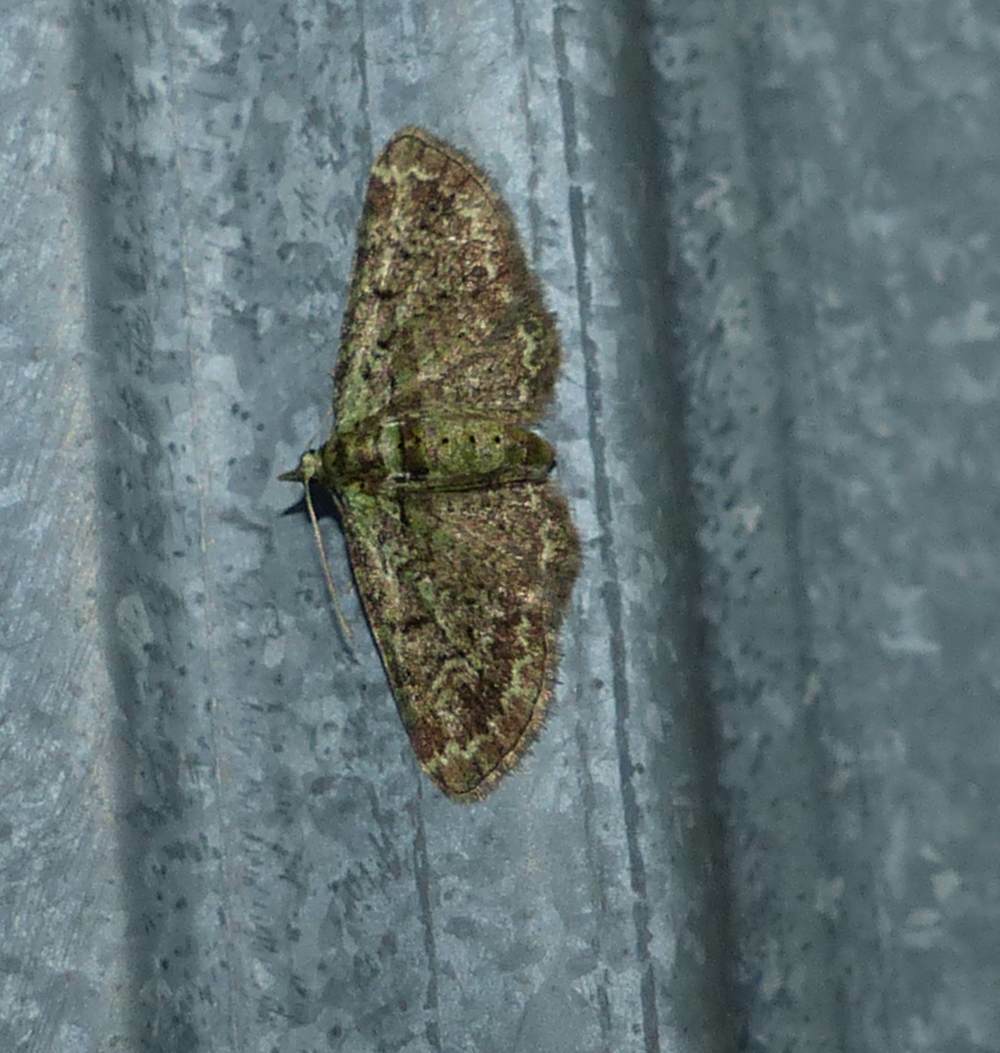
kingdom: Animalia
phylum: Arthropoda
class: Insecta
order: Lepidoptera
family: Geometridae
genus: Pasiphila
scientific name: Pasiphila rectangulata
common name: Green pug
